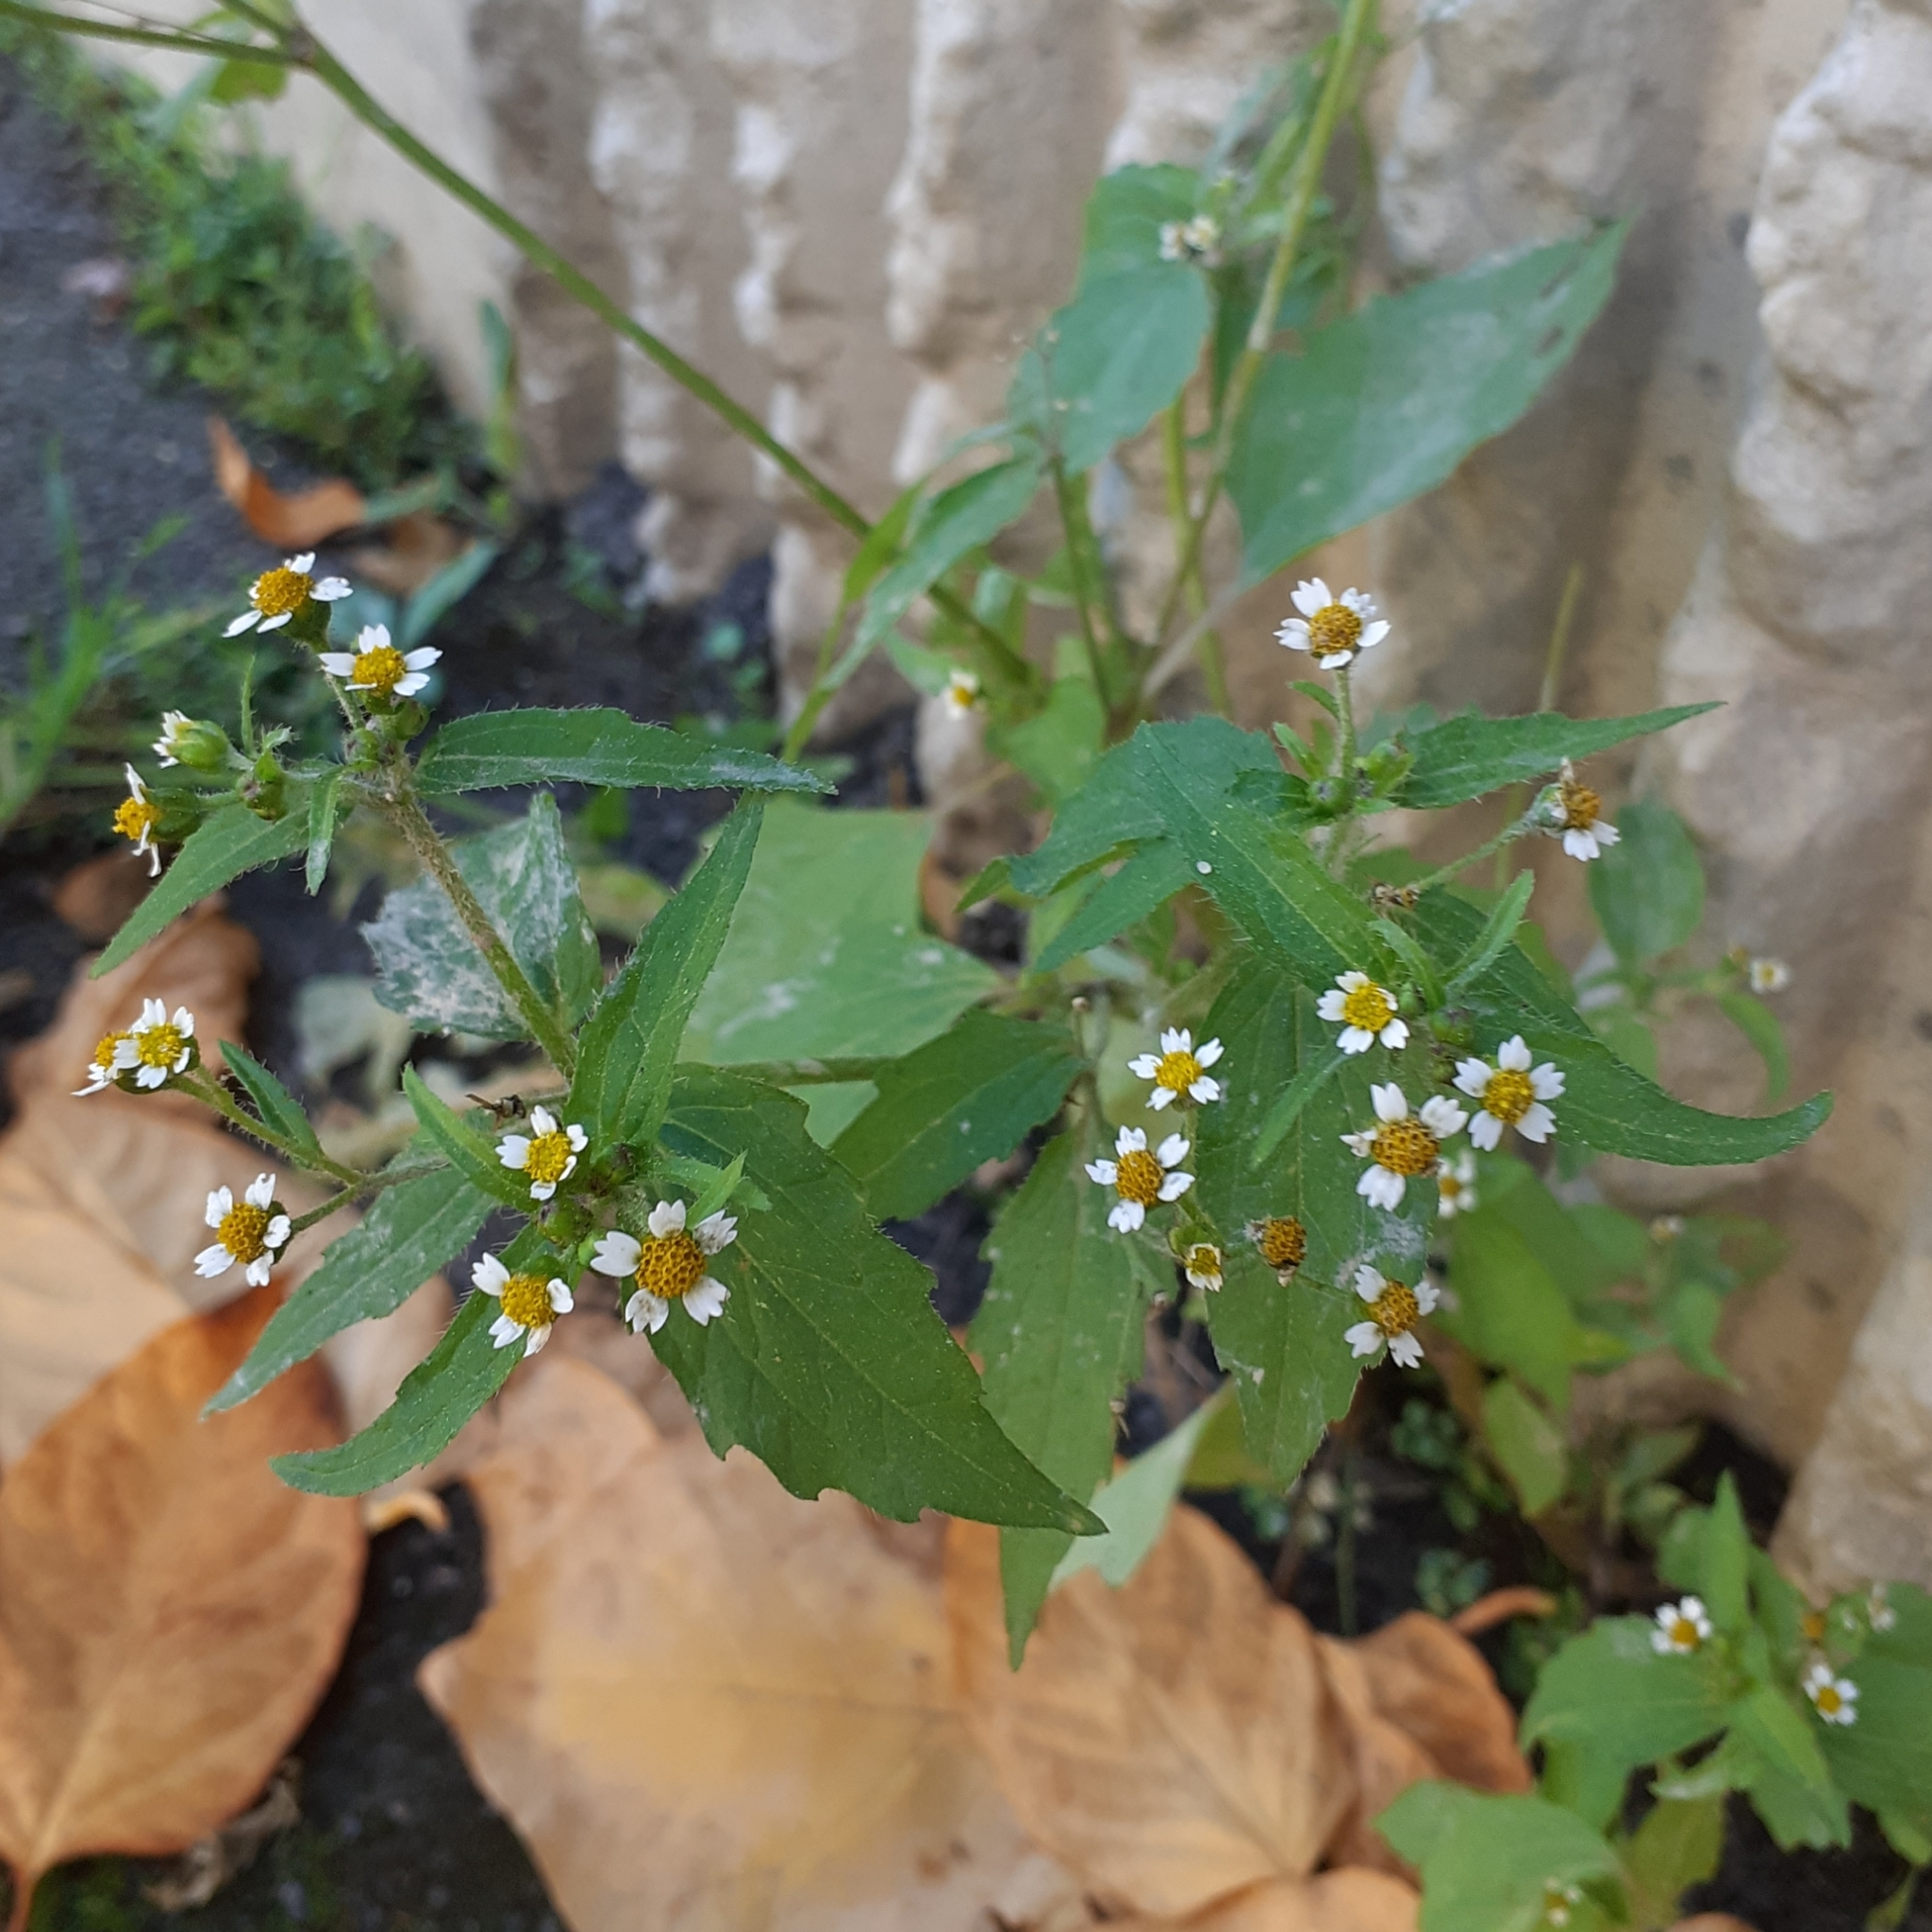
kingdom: Plantae
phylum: Tracheophyta
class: Magnoliopsida
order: Asterales
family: Asteraceae
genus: Galinsoga
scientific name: Galinsoga quadriradiata
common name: Shaggy soldier
